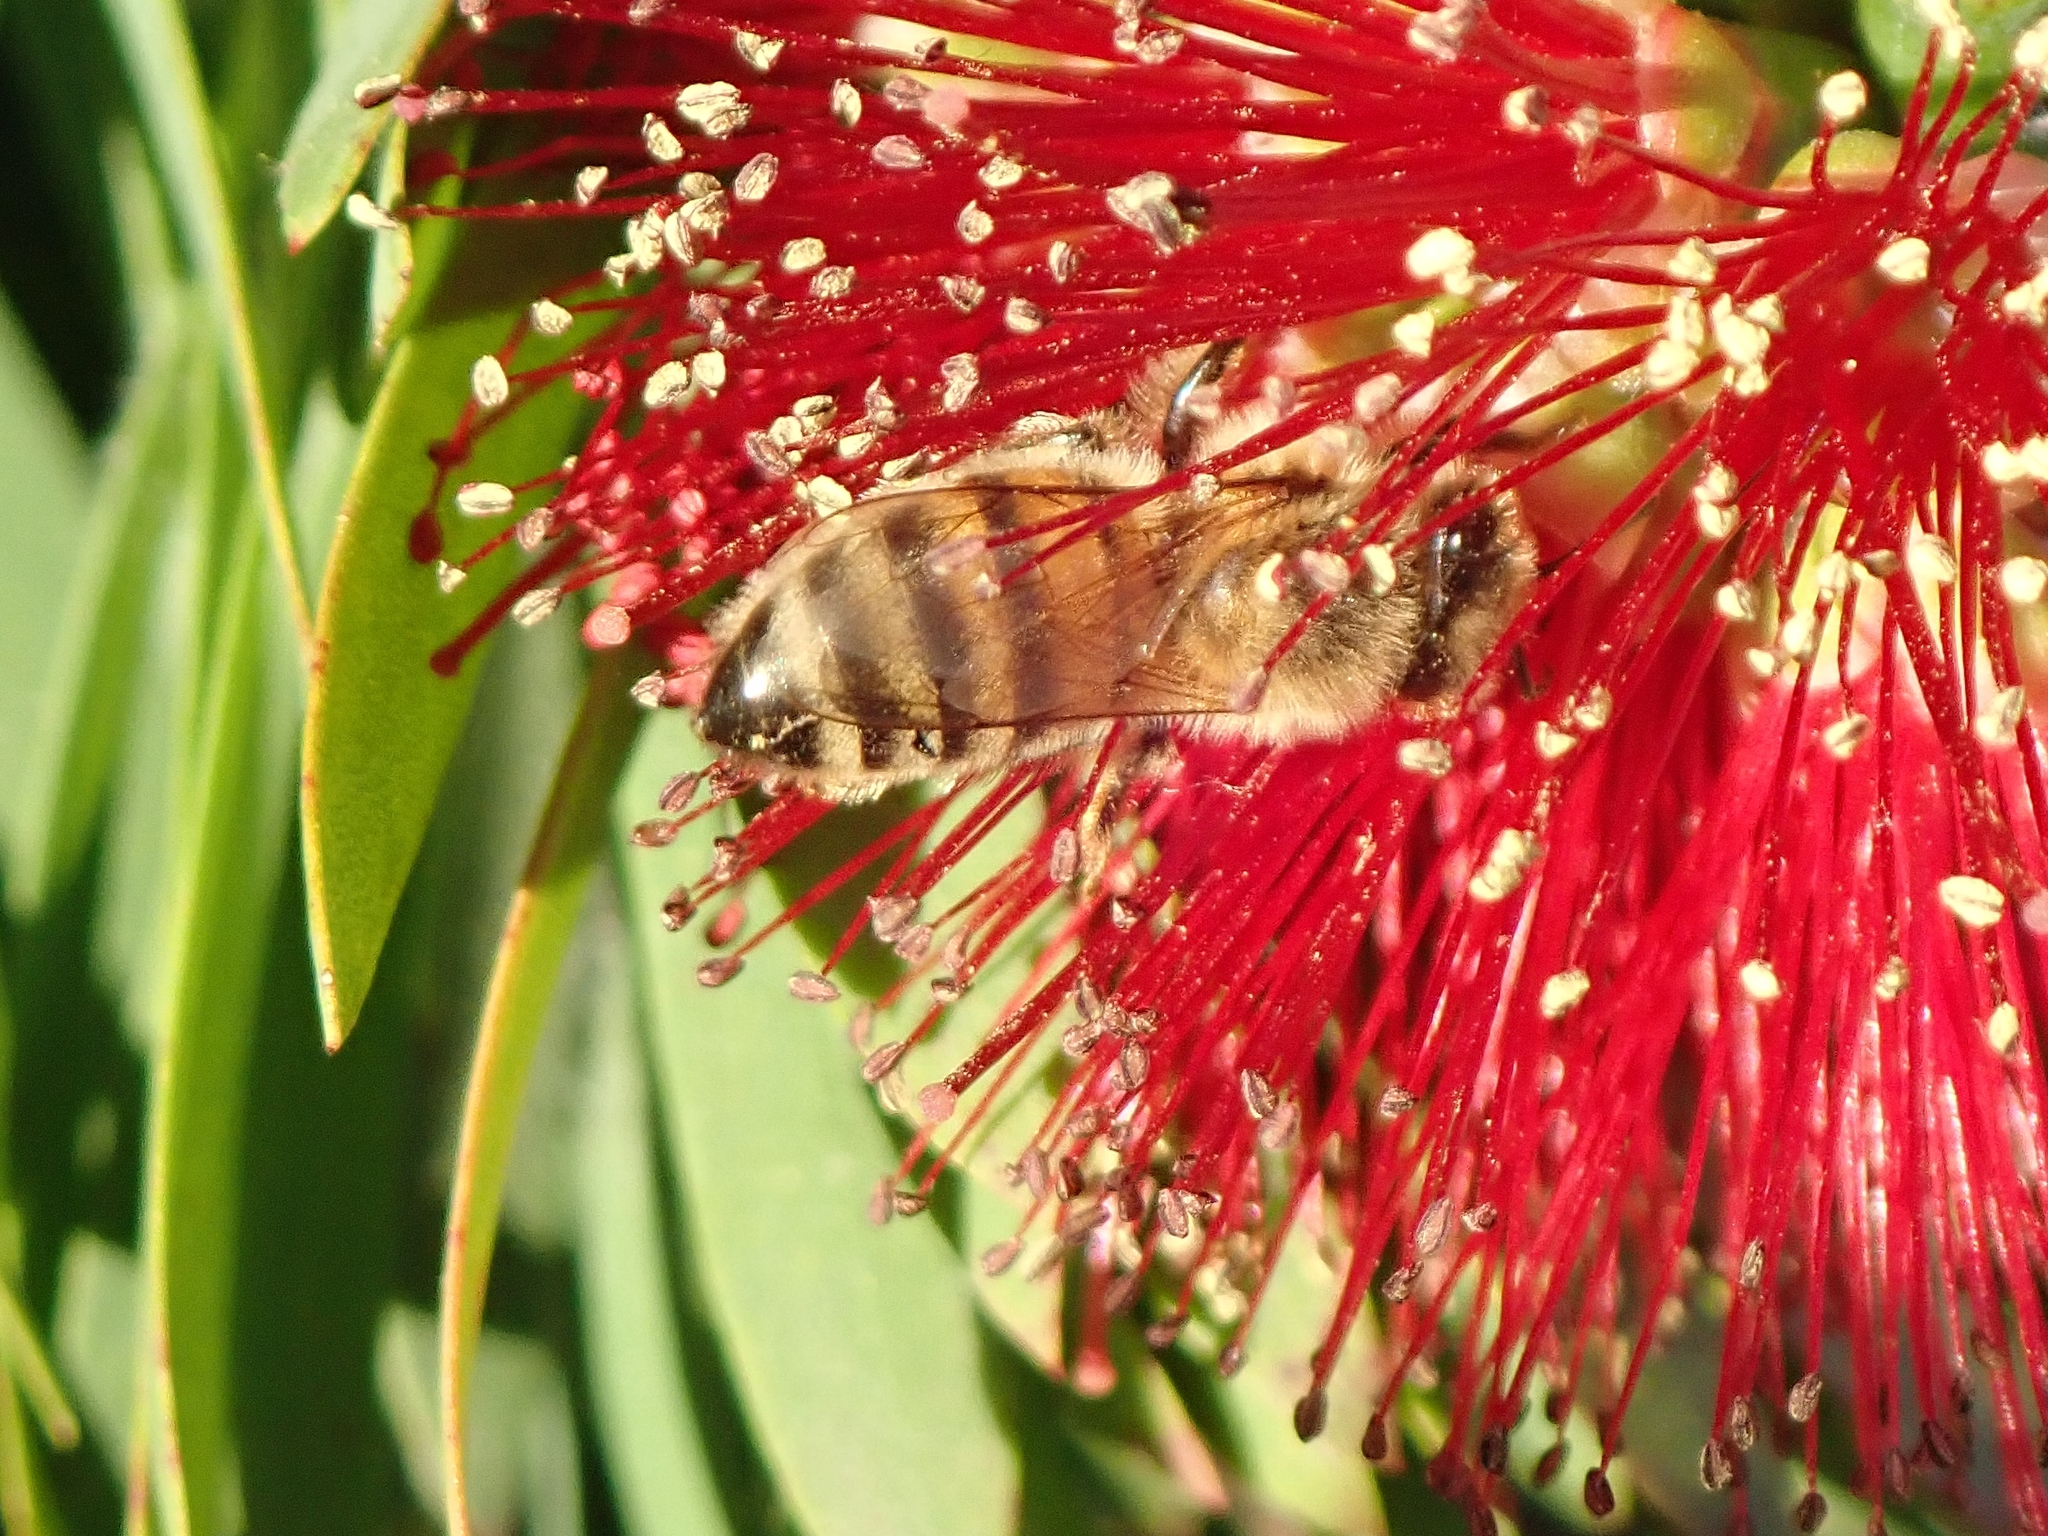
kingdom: Animalia
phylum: Arthropoda
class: Insecta
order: Hymenoptera
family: Apidae
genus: Apis
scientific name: Apis mellifera
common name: Honey bee
